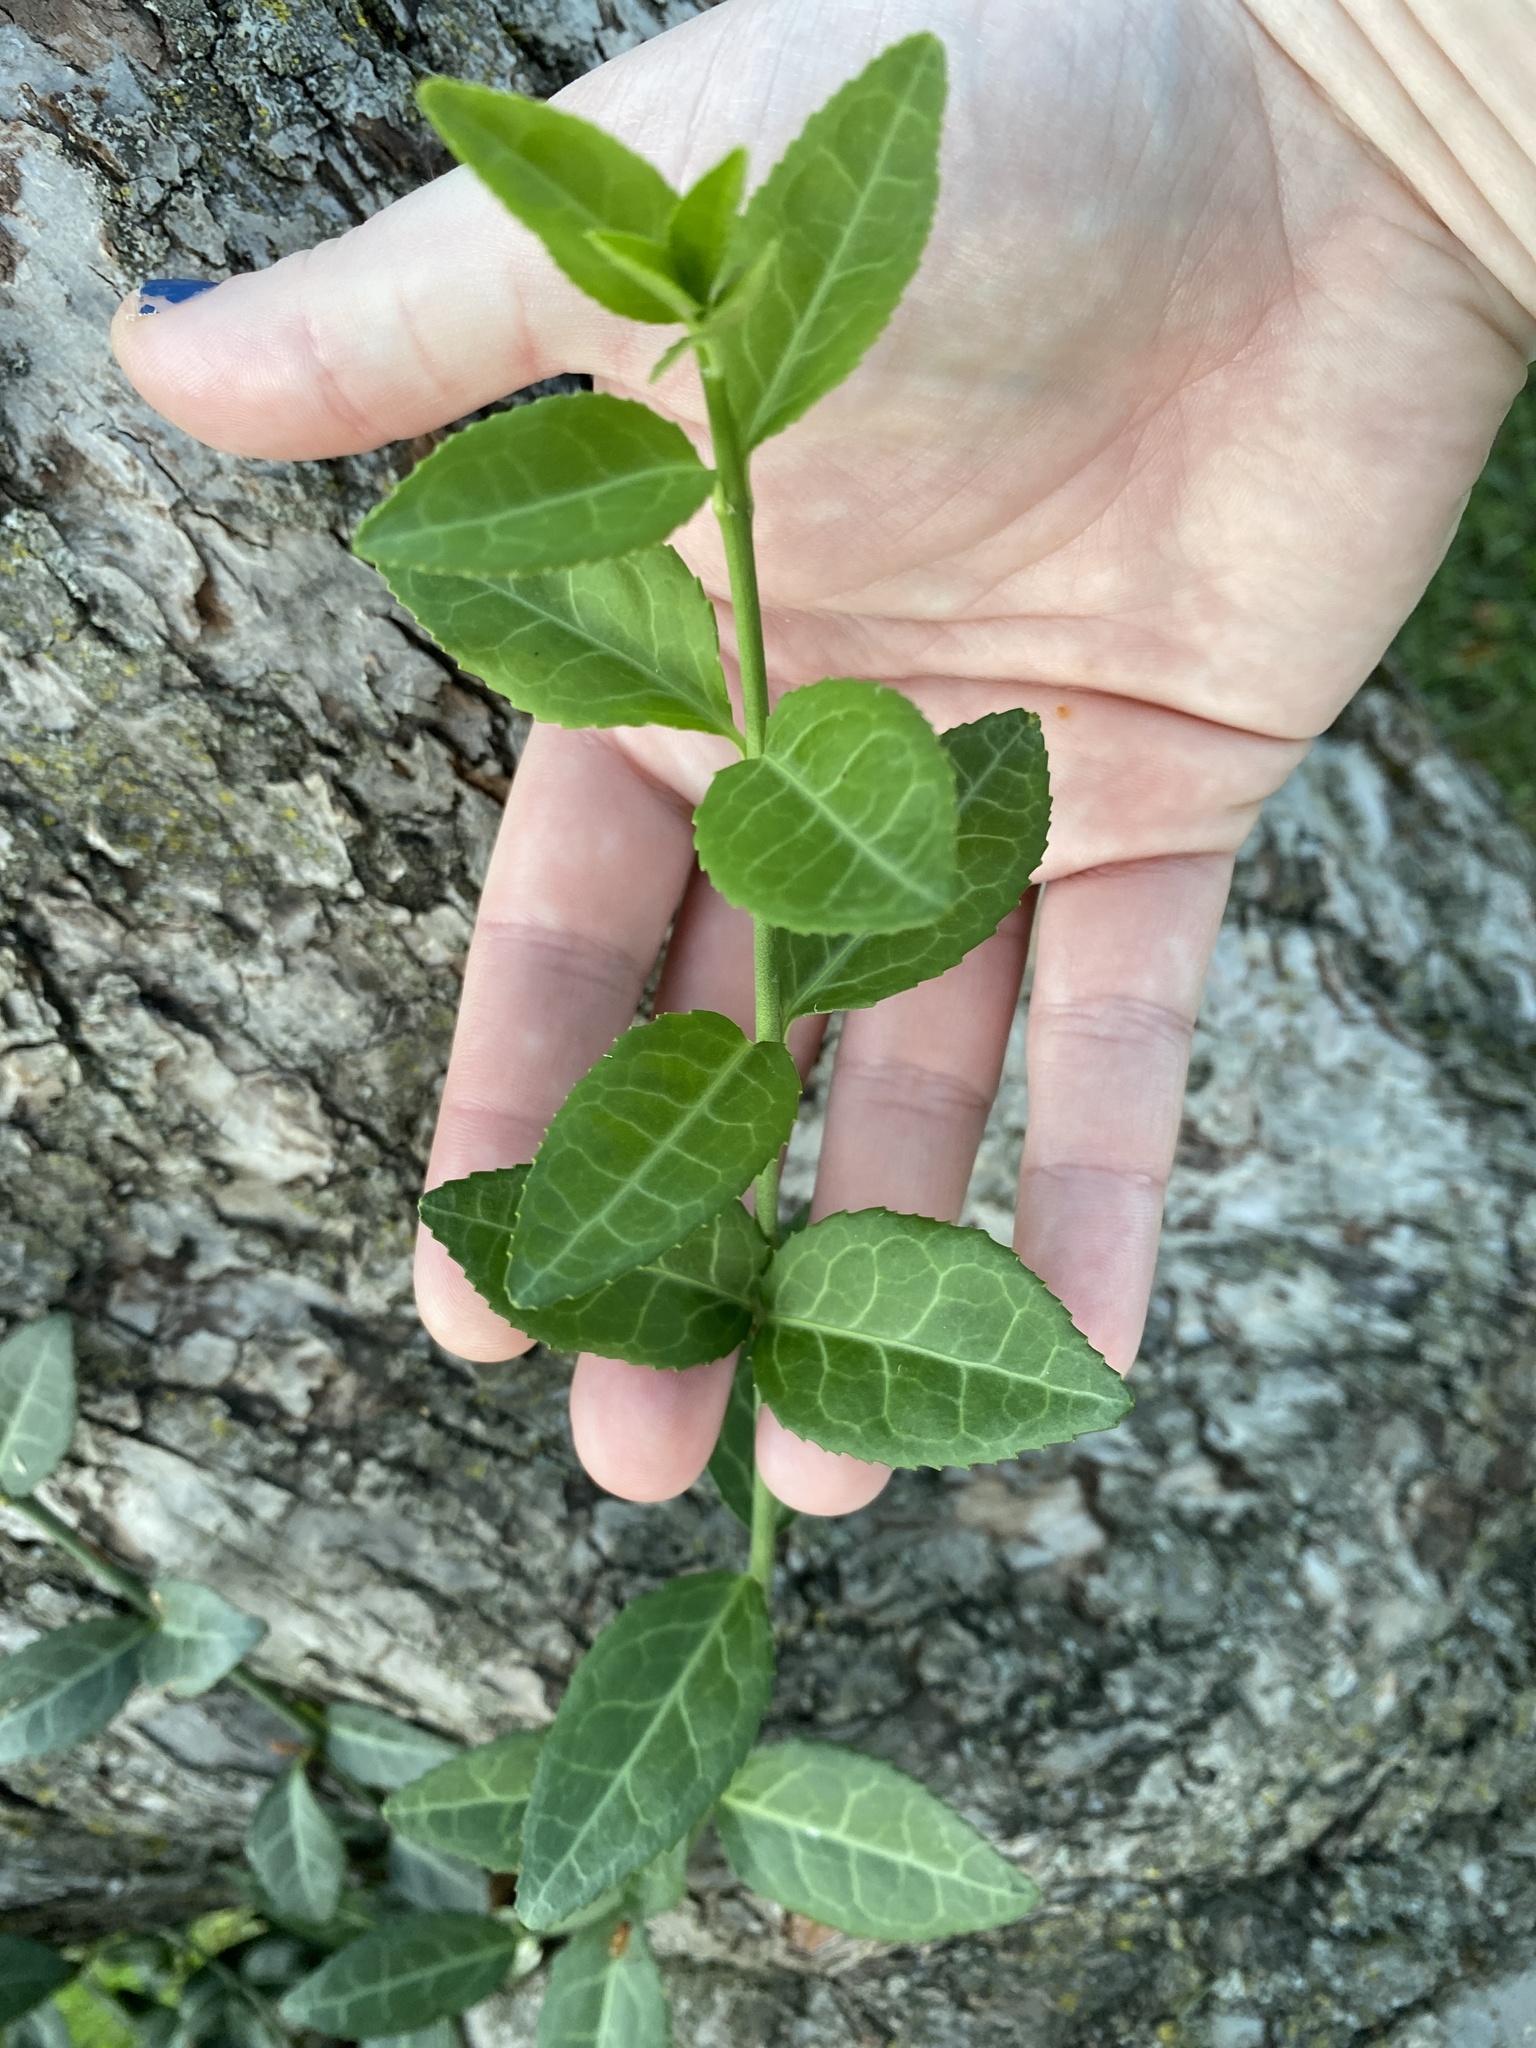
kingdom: Plantae
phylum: Tracheophyta
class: Magnoliopsida
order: Celastrales
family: Celastraceae
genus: Euonymus
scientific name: Euonymus fortunei
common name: Climbing euonymus
